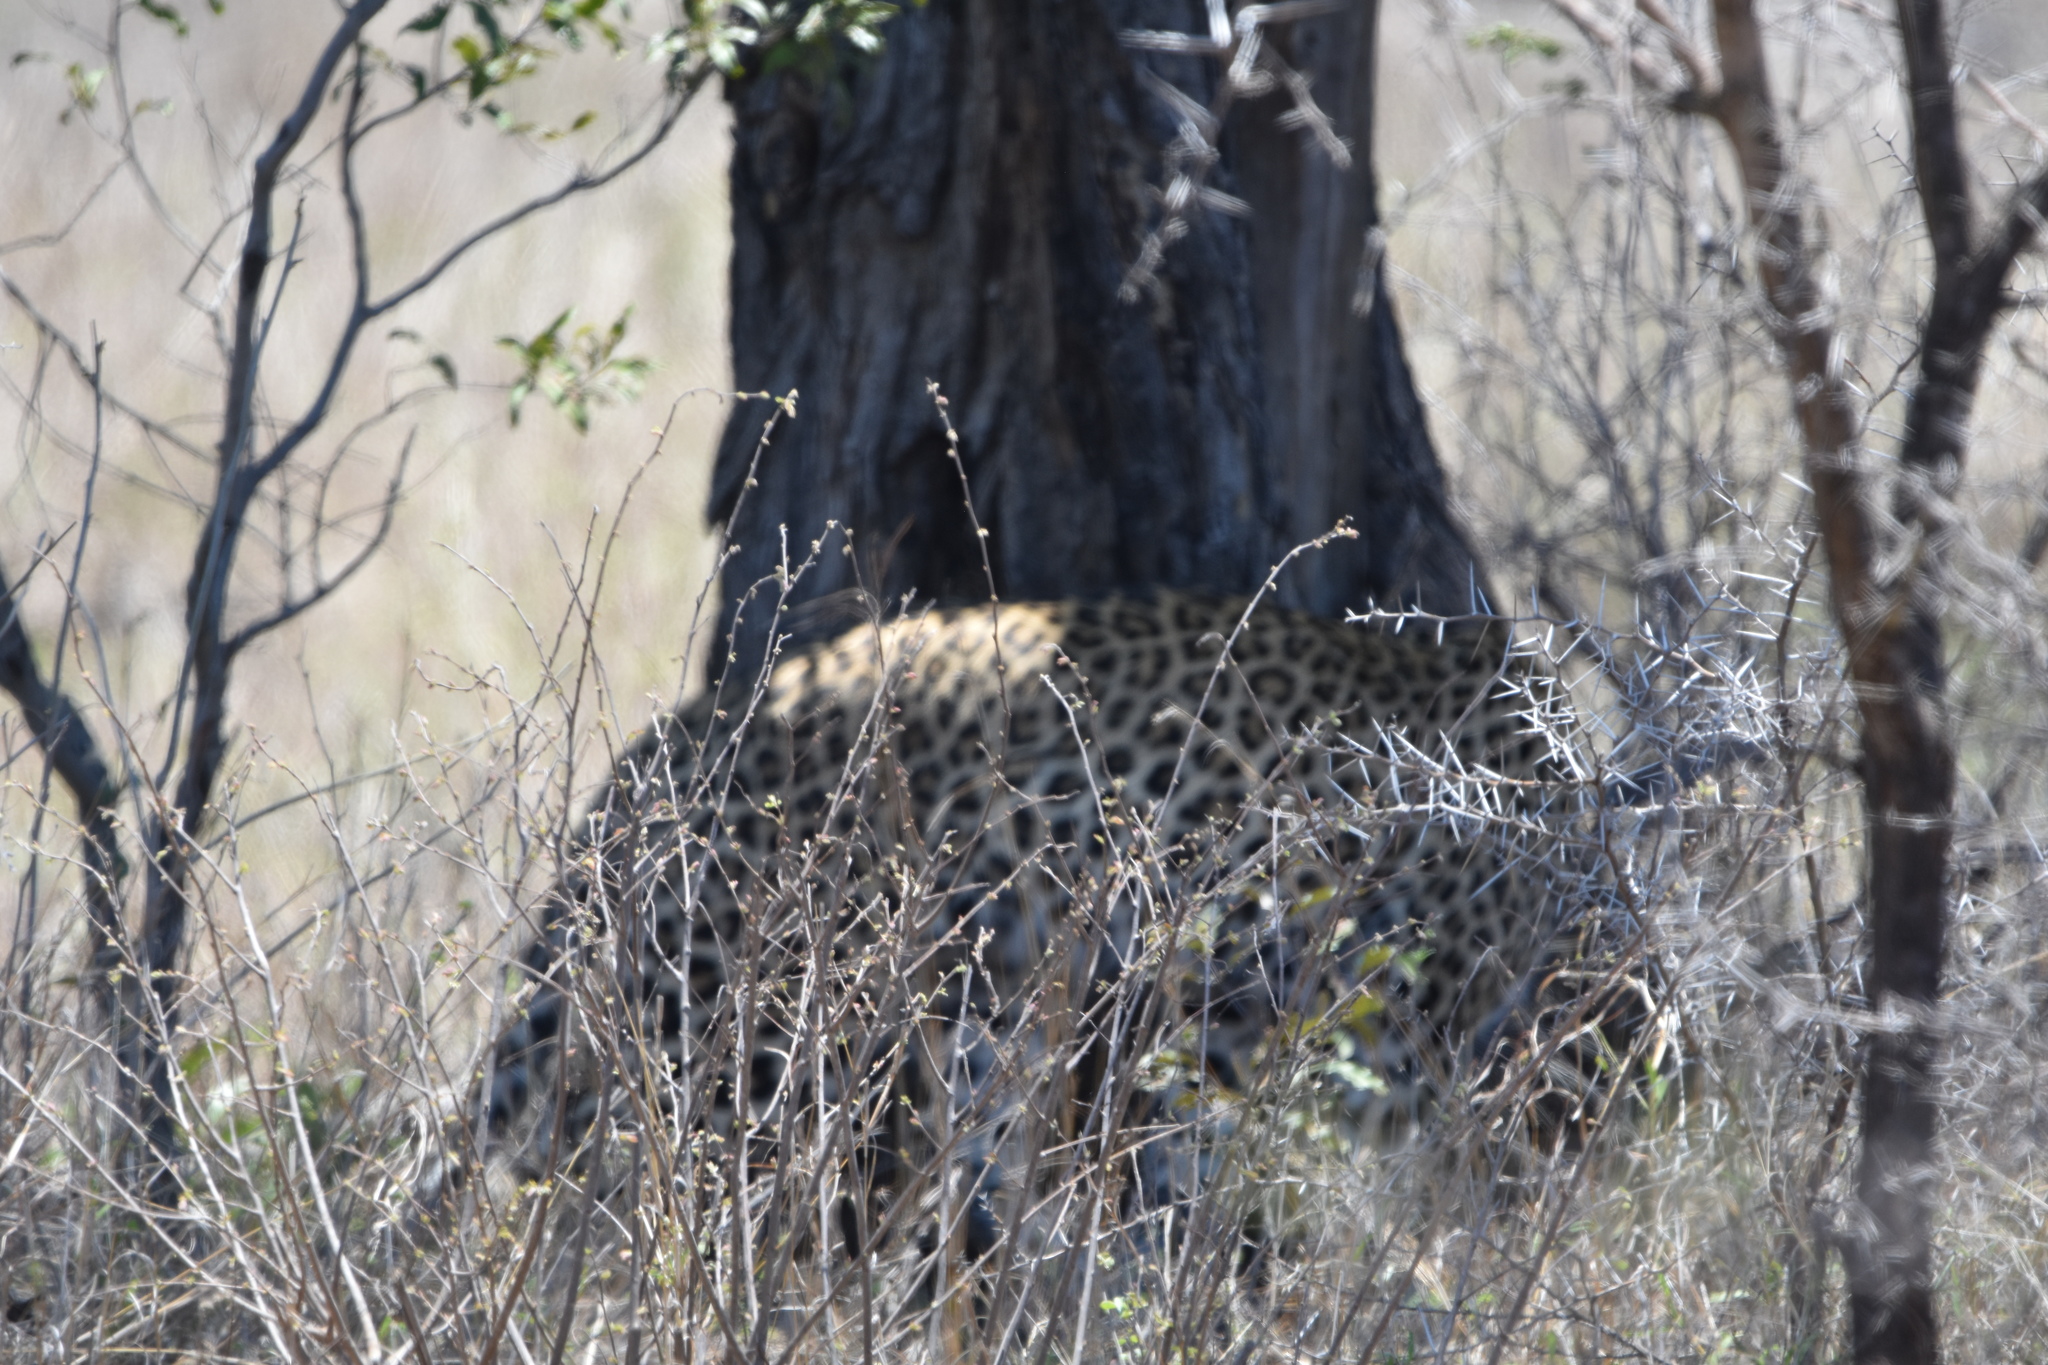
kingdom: Animalia
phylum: Chordata
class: Mammalia
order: Carnivora
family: Felidae
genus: Panthera
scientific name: Panthera pardus
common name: Leopard
